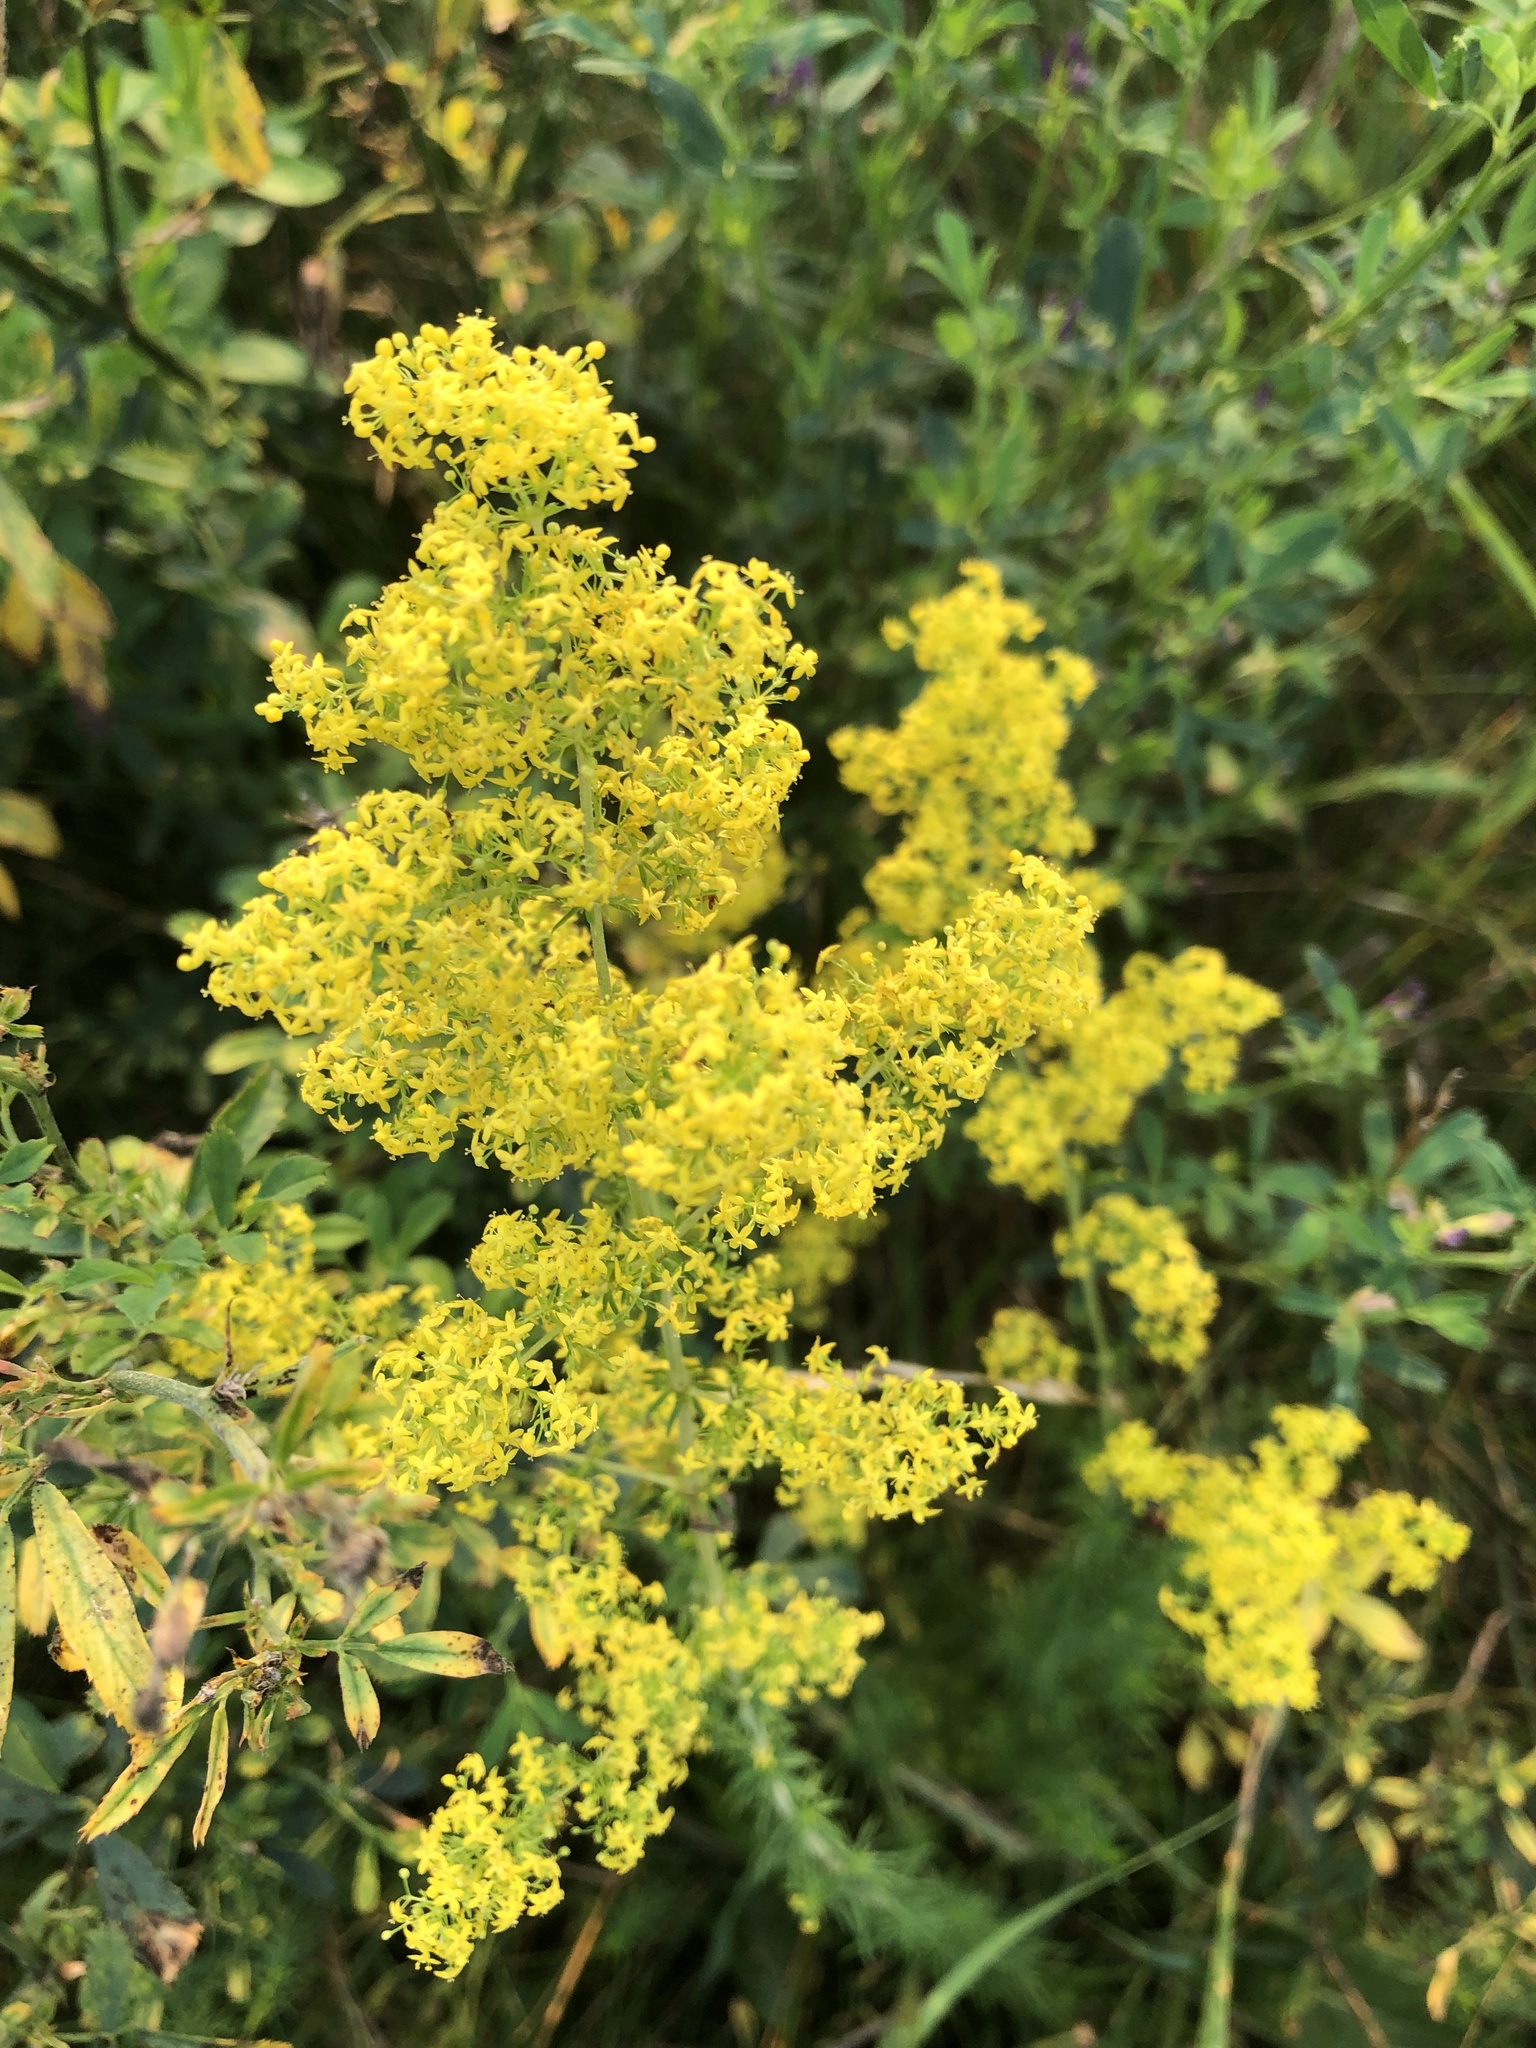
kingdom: Plantae
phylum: Tracheophyta
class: Magnoliopsida
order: Gentianales
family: Rubiaceae
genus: Galium
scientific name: Galium verum
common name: Lady's bedstraw
